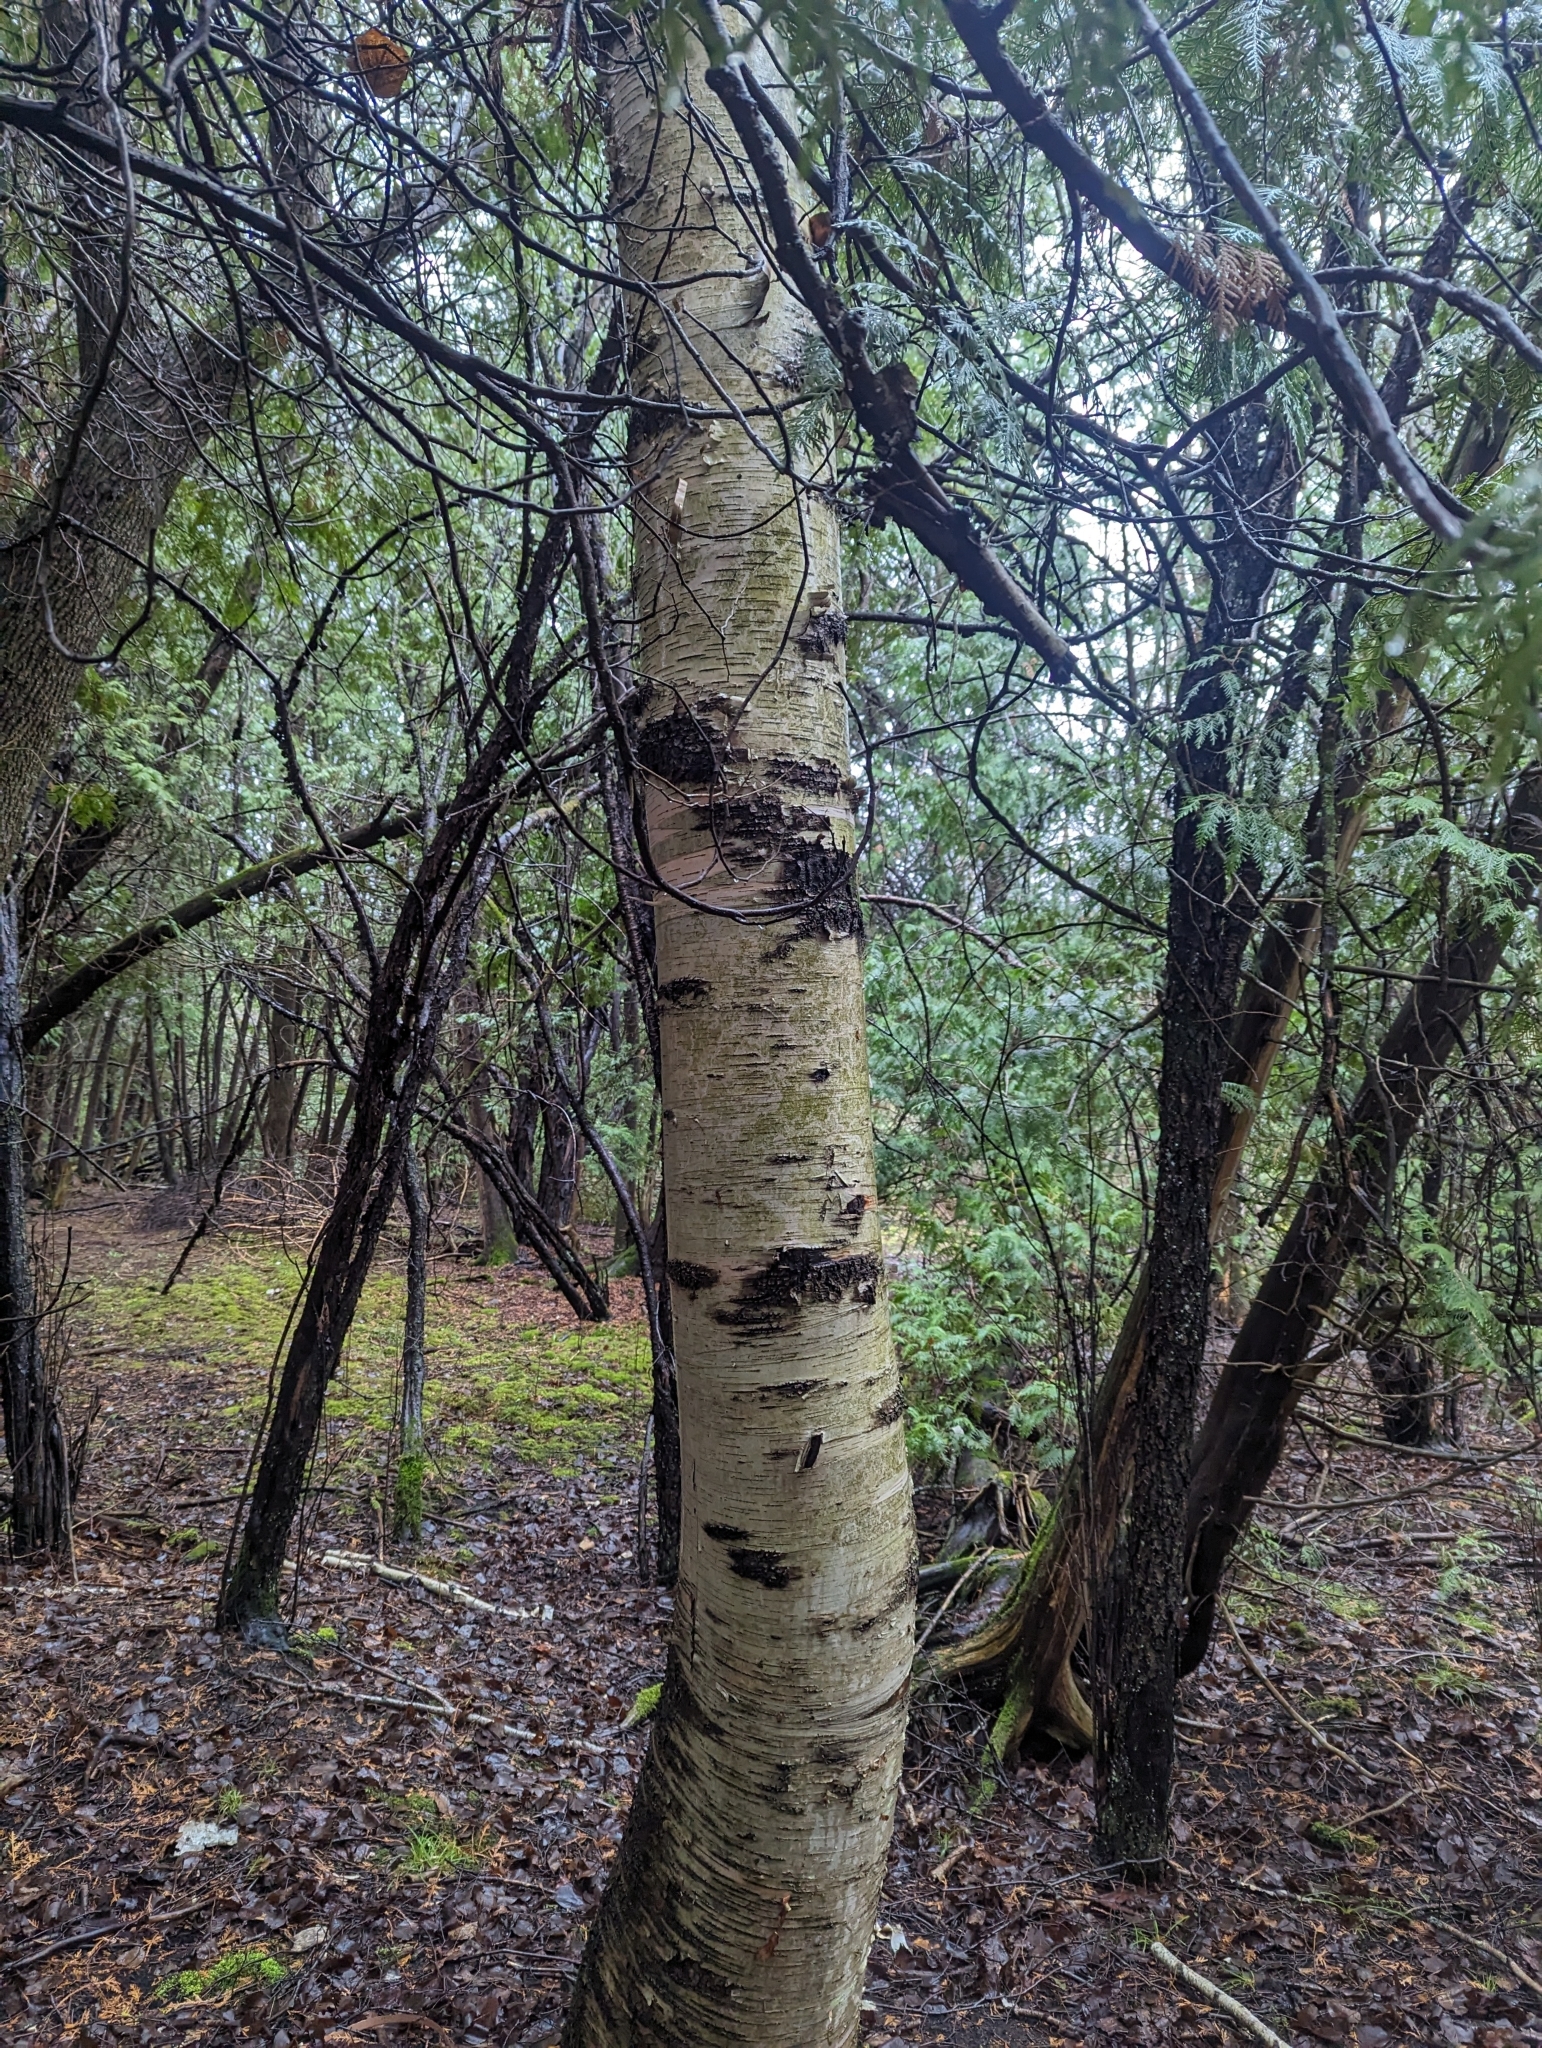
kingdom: Plantae
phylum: Tracheophyta
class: Magnoliopsida
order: Fagales
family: Betulaceae
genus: Betula
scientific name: Betula papyrifera
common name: Paper birch
